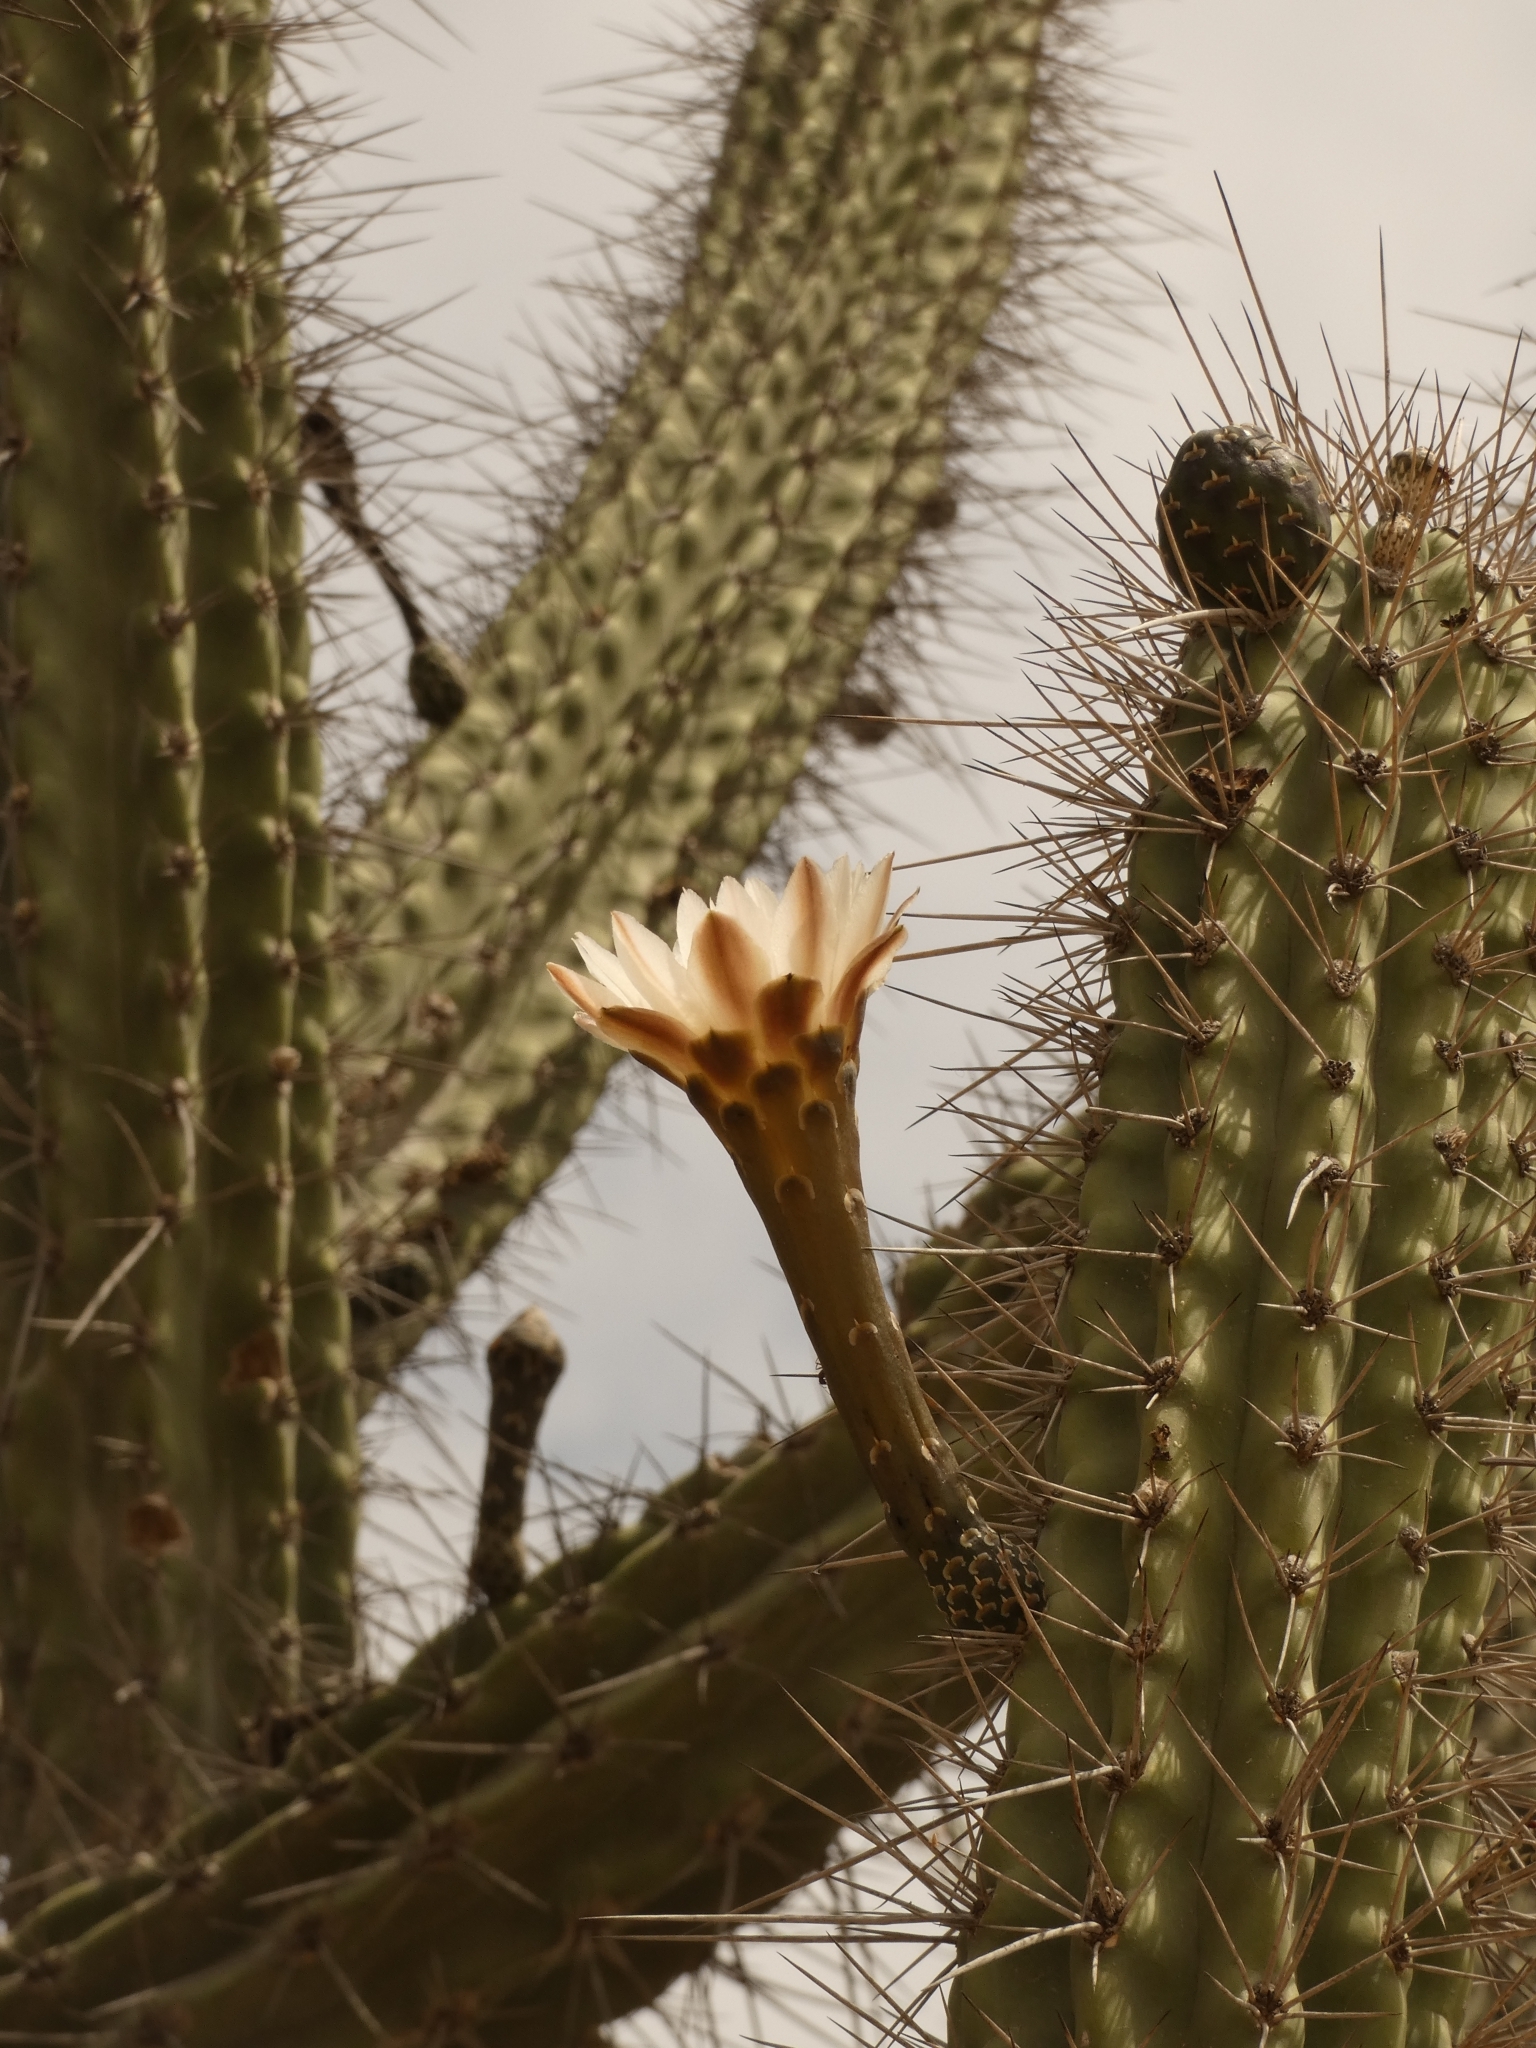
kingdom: Plantae
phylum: Tracheophyta
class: Magnoliopsida
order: Caryophyllales
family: Cactaceae
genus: Stetsonia
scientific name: Stetsonia coryne
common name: Toothpick cactus
